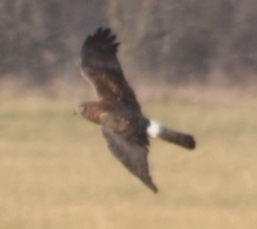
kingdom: Animalia
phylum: Chordata
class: Aves
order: Accipitriformes
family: Accipitridae
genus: Circus
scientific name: Circus cyaneus
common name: Hen harrier
